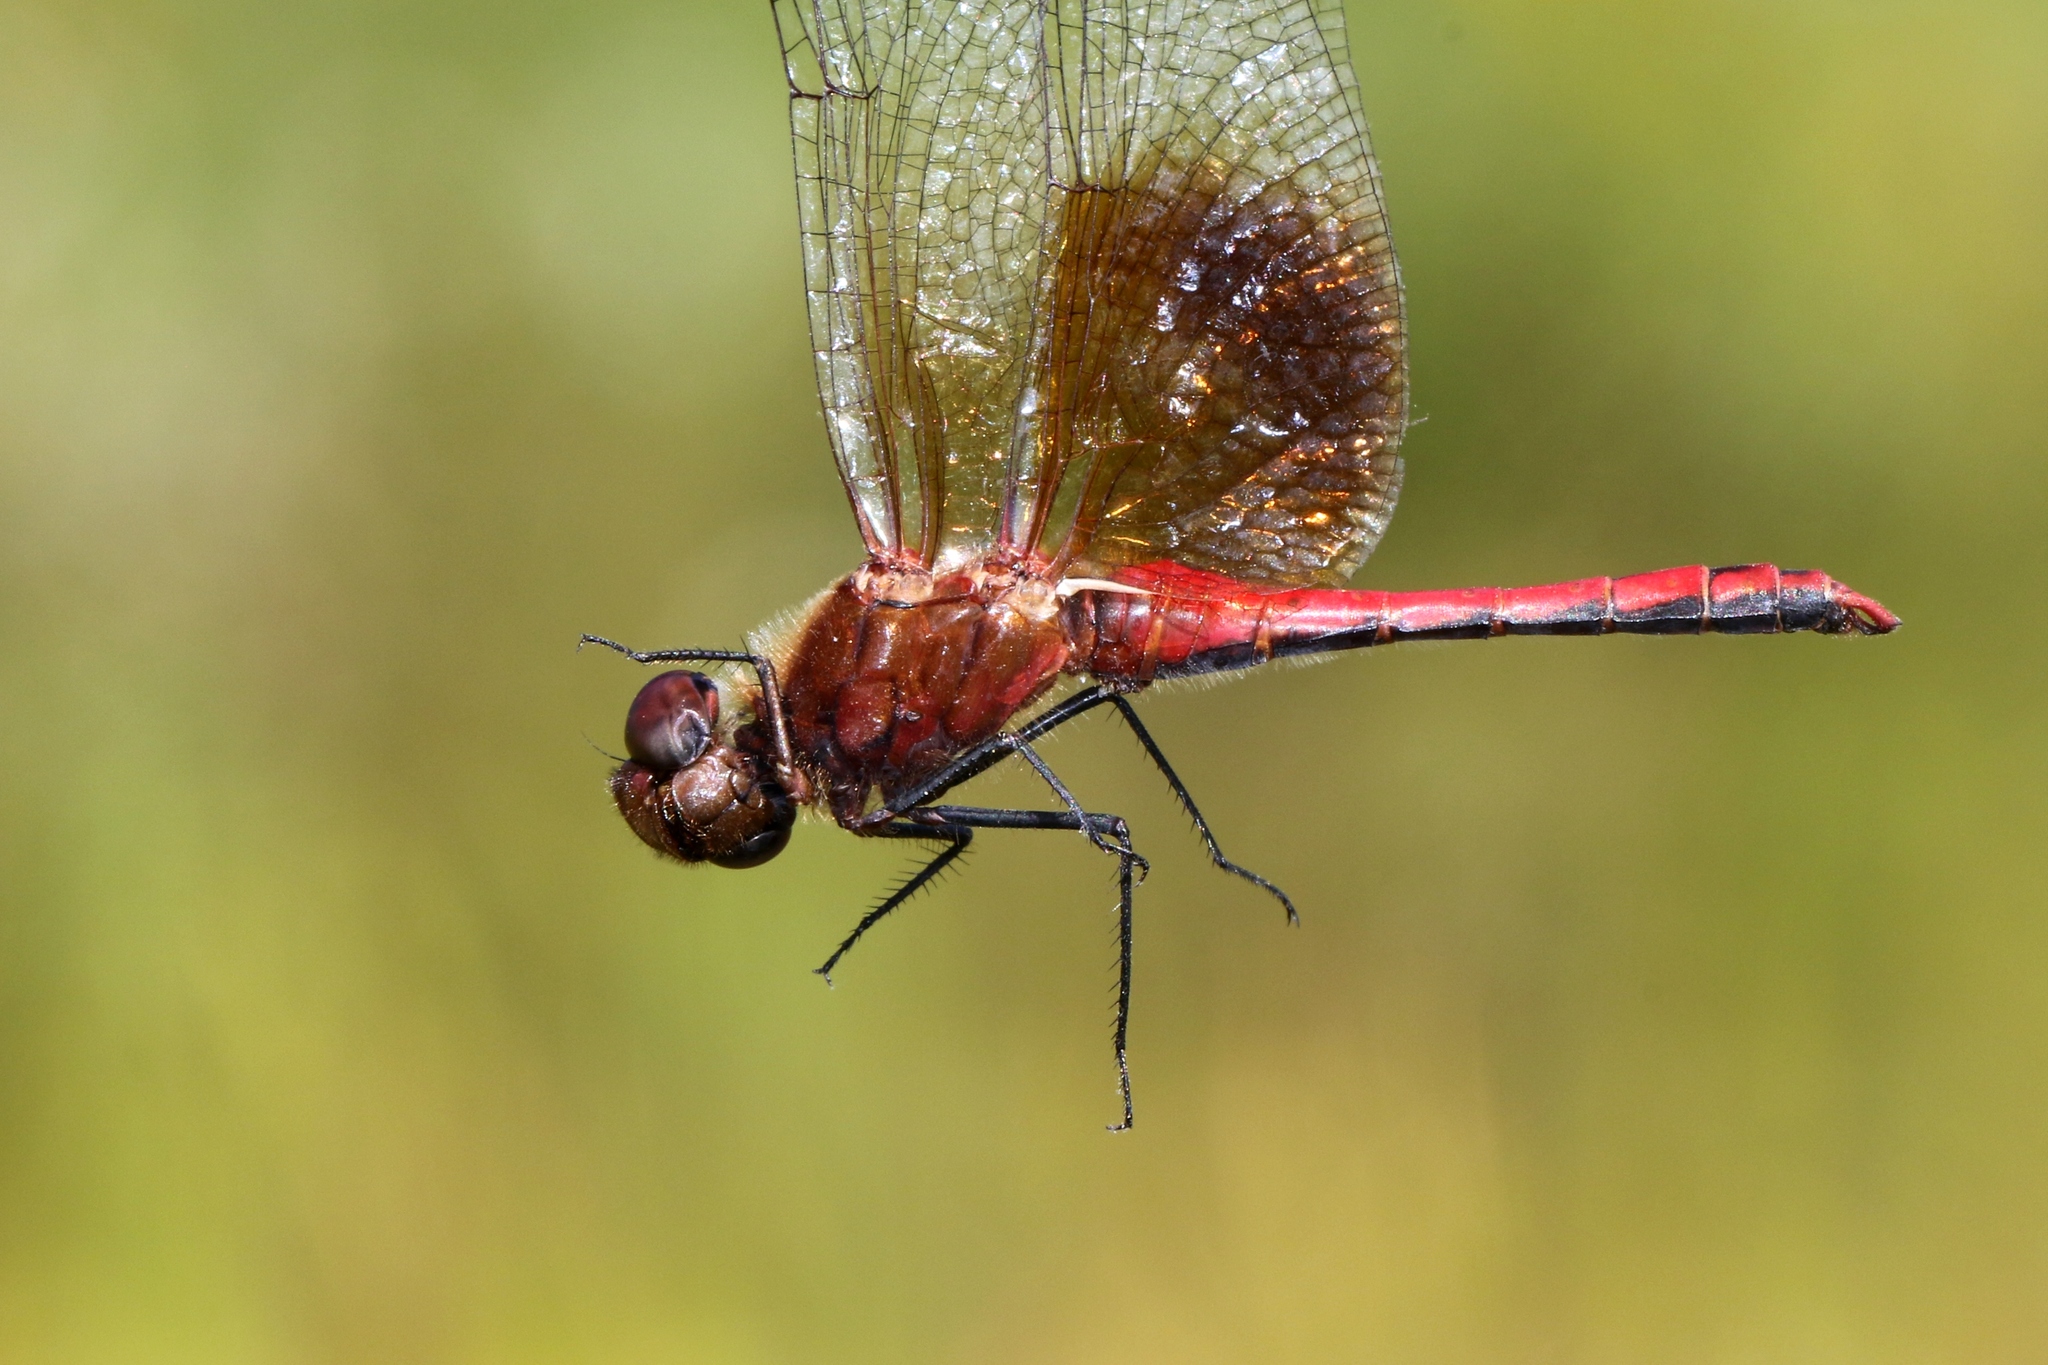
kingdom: Animalia
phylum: Arthropoda
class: Insecta
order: Odonata
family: Libellulidae
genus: Sympetrum
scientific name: Sympetrum semicinctum
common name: Band-winged meadowhawk
